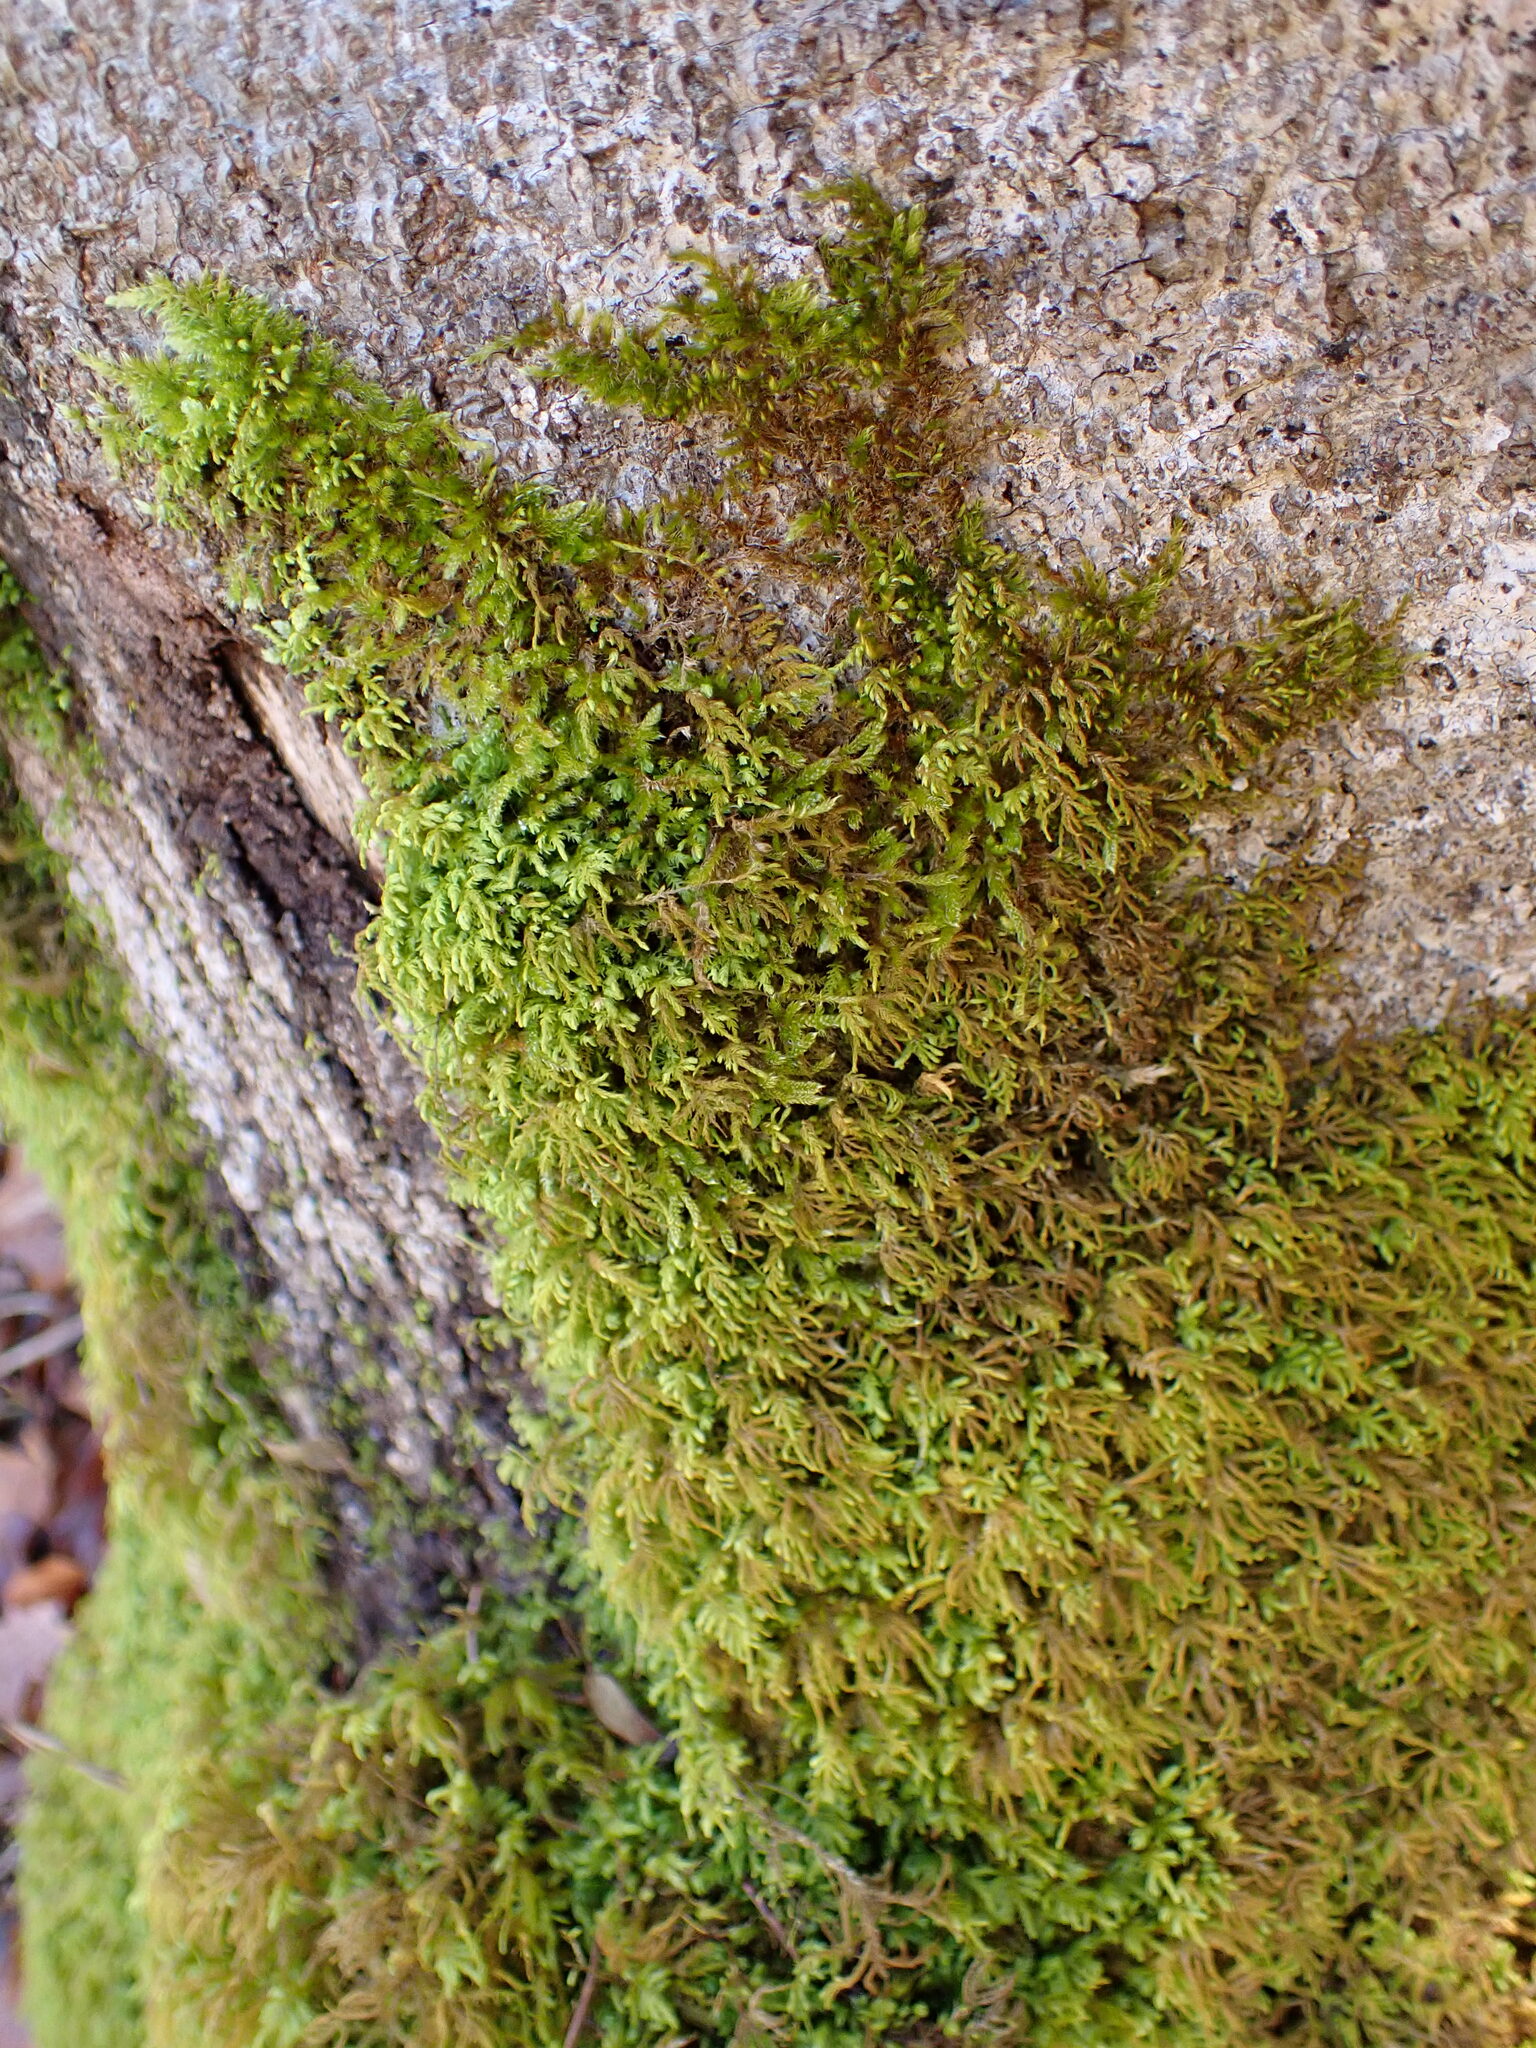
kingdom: Plantae
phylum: Bryophyta
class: Bryopsida
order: Hypnales
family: Neckeraceae
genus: Pseudanomodon
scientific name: Pseudanomodon attenuatus
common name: Tree-skirt moss
